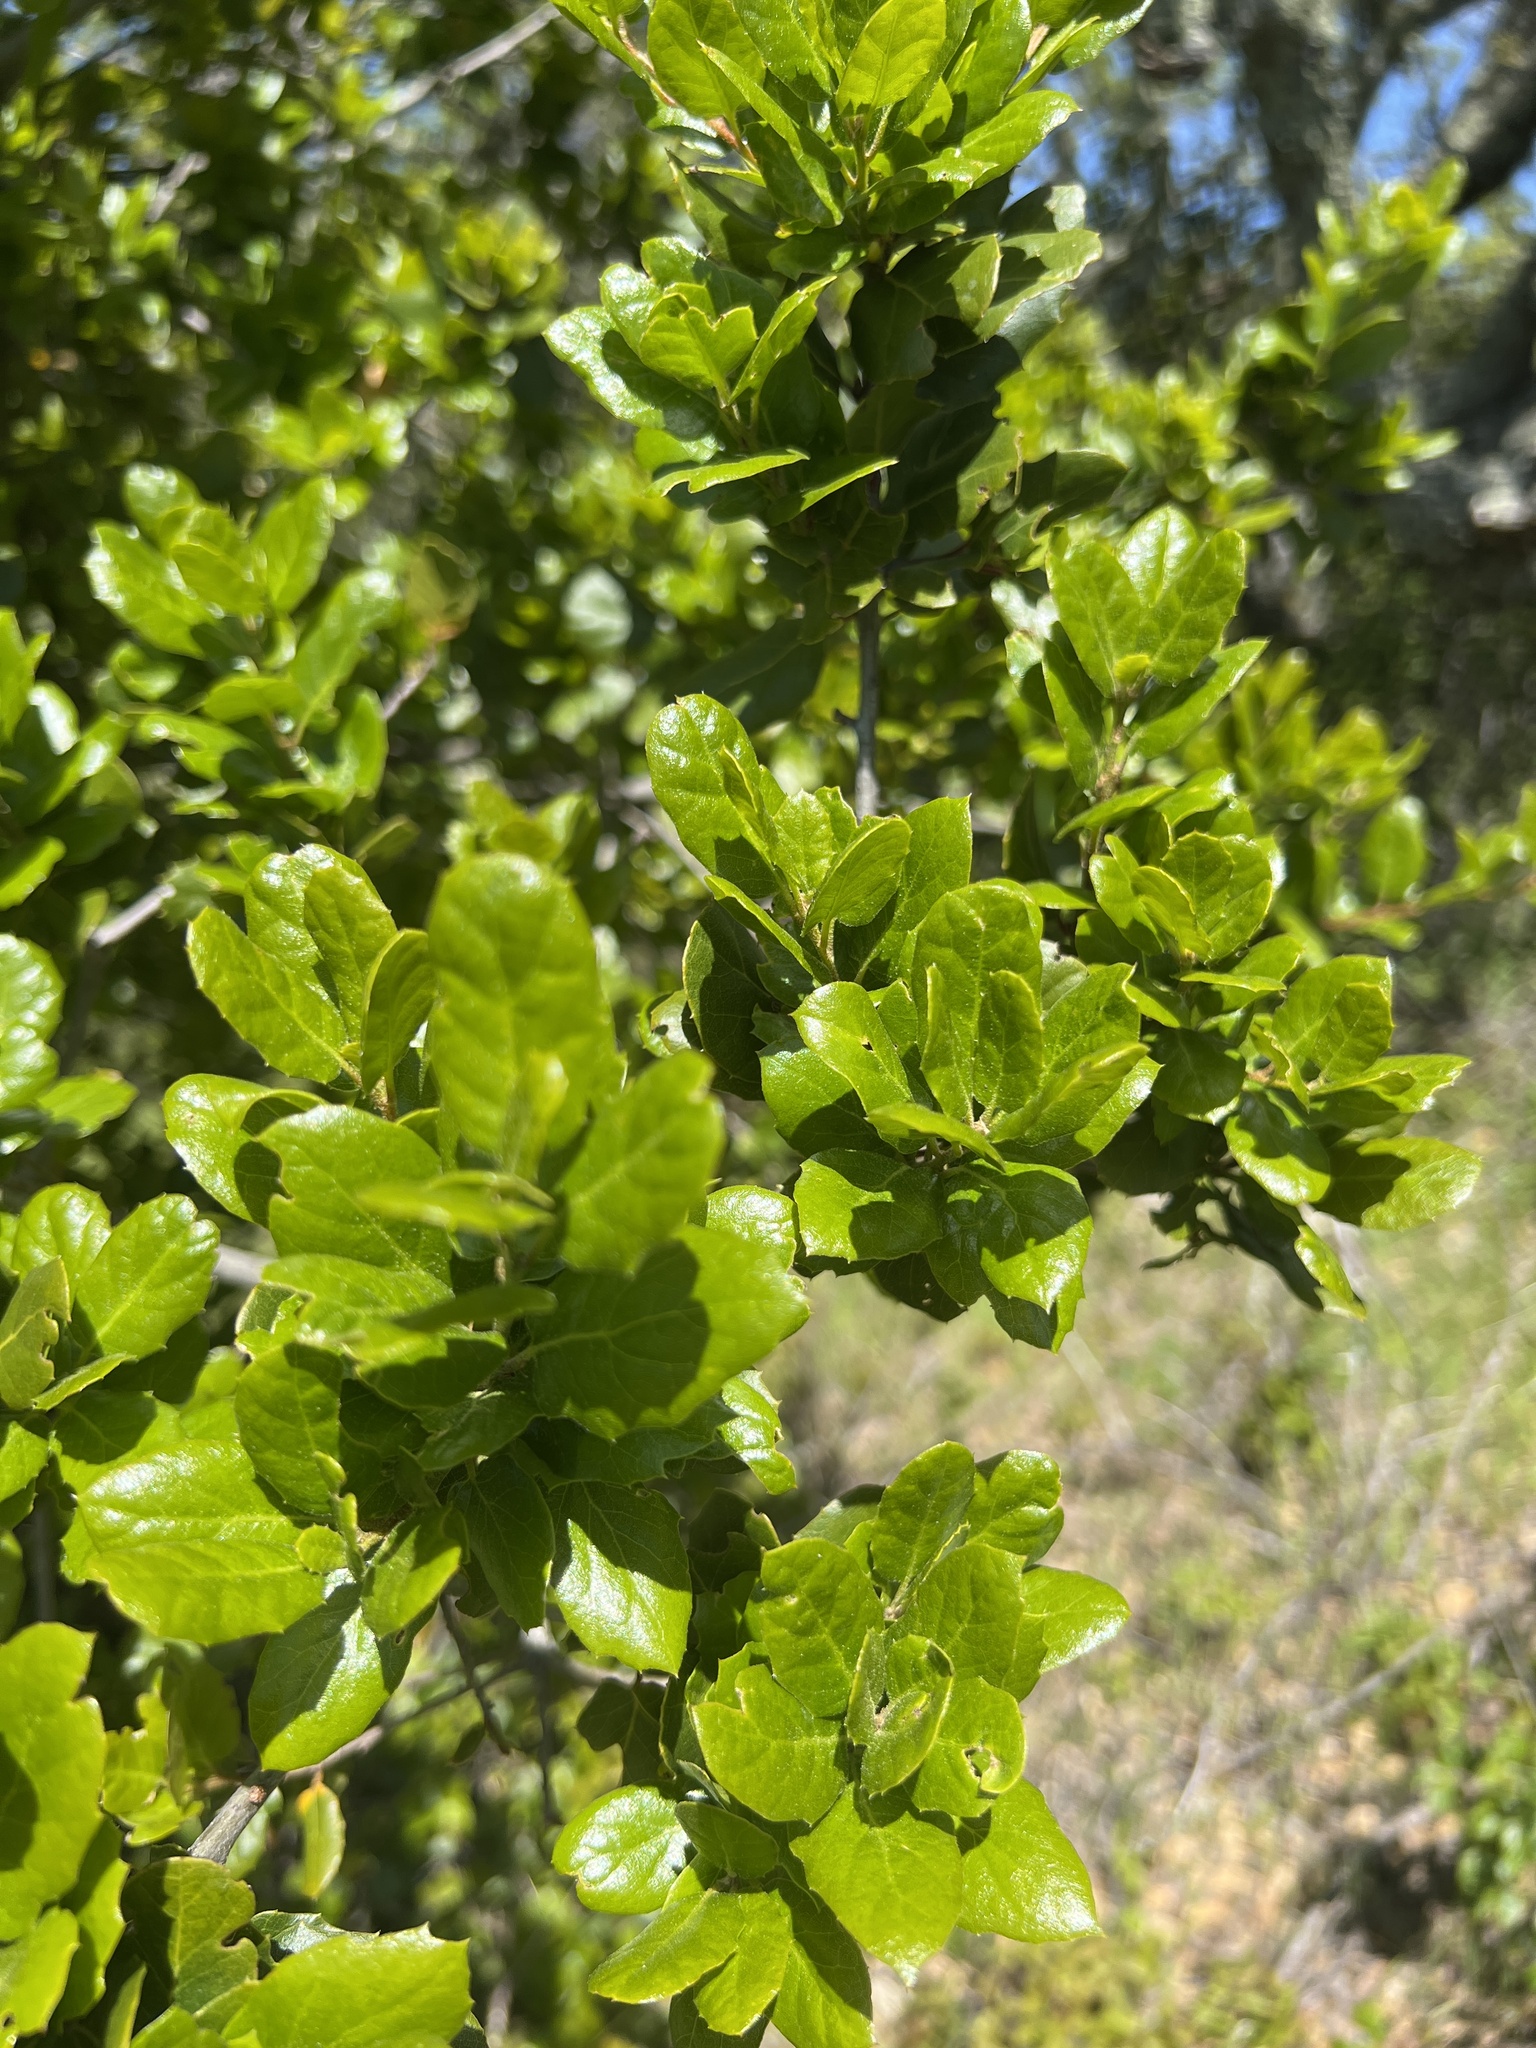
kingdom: Plantae
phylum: Tracheophyta
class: Magnoliopsida
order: Fagales
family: Fagaceae
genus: Quercus
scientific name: Quercus agrifolia
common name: California live oak
